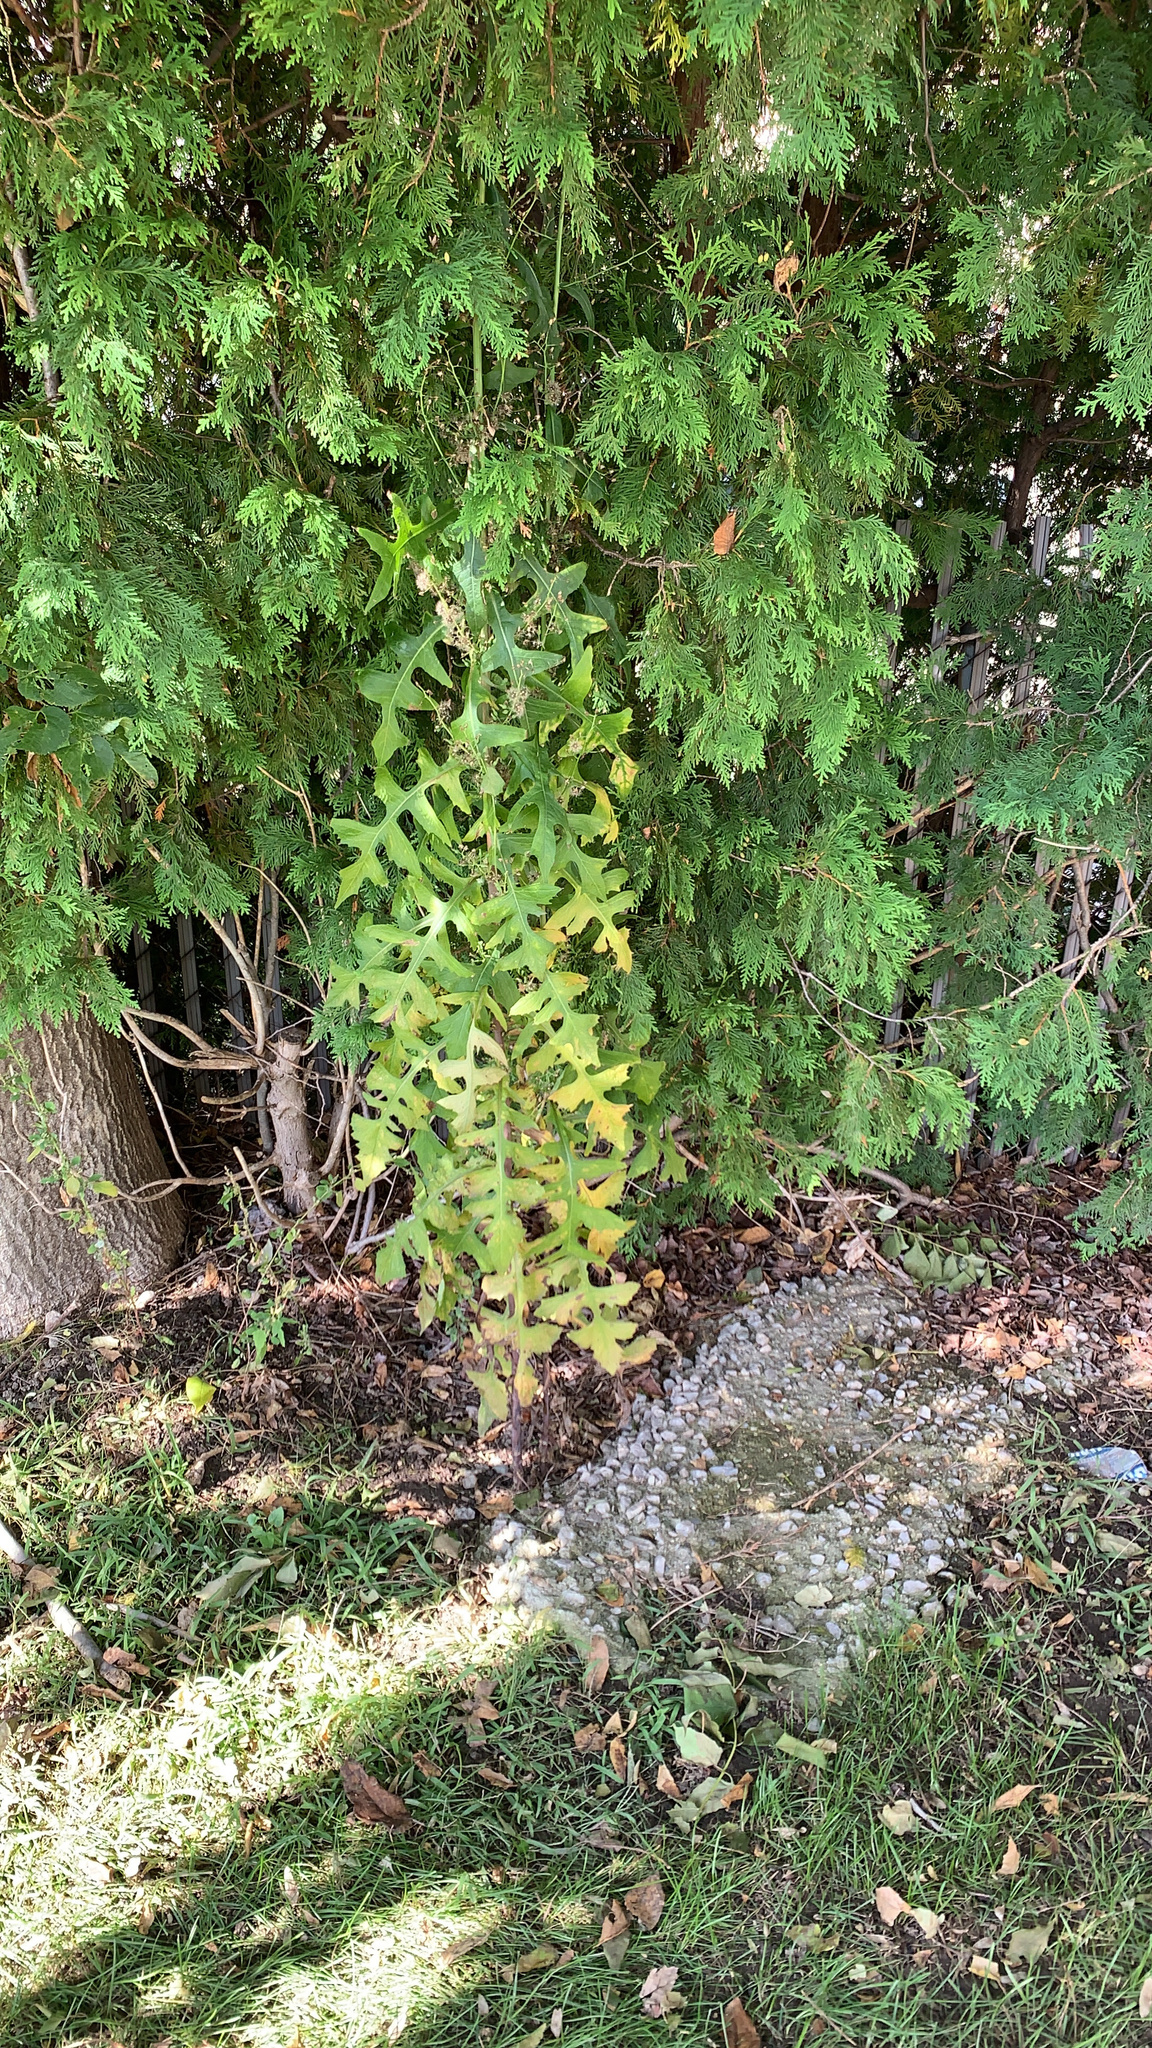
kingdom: Plantae
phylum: Tracheophyta
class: Magnoliopsida
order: Asterales
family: Asteraceae
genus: Lactuca
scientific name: Lactuca biennis
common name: Blue wood lettuce
